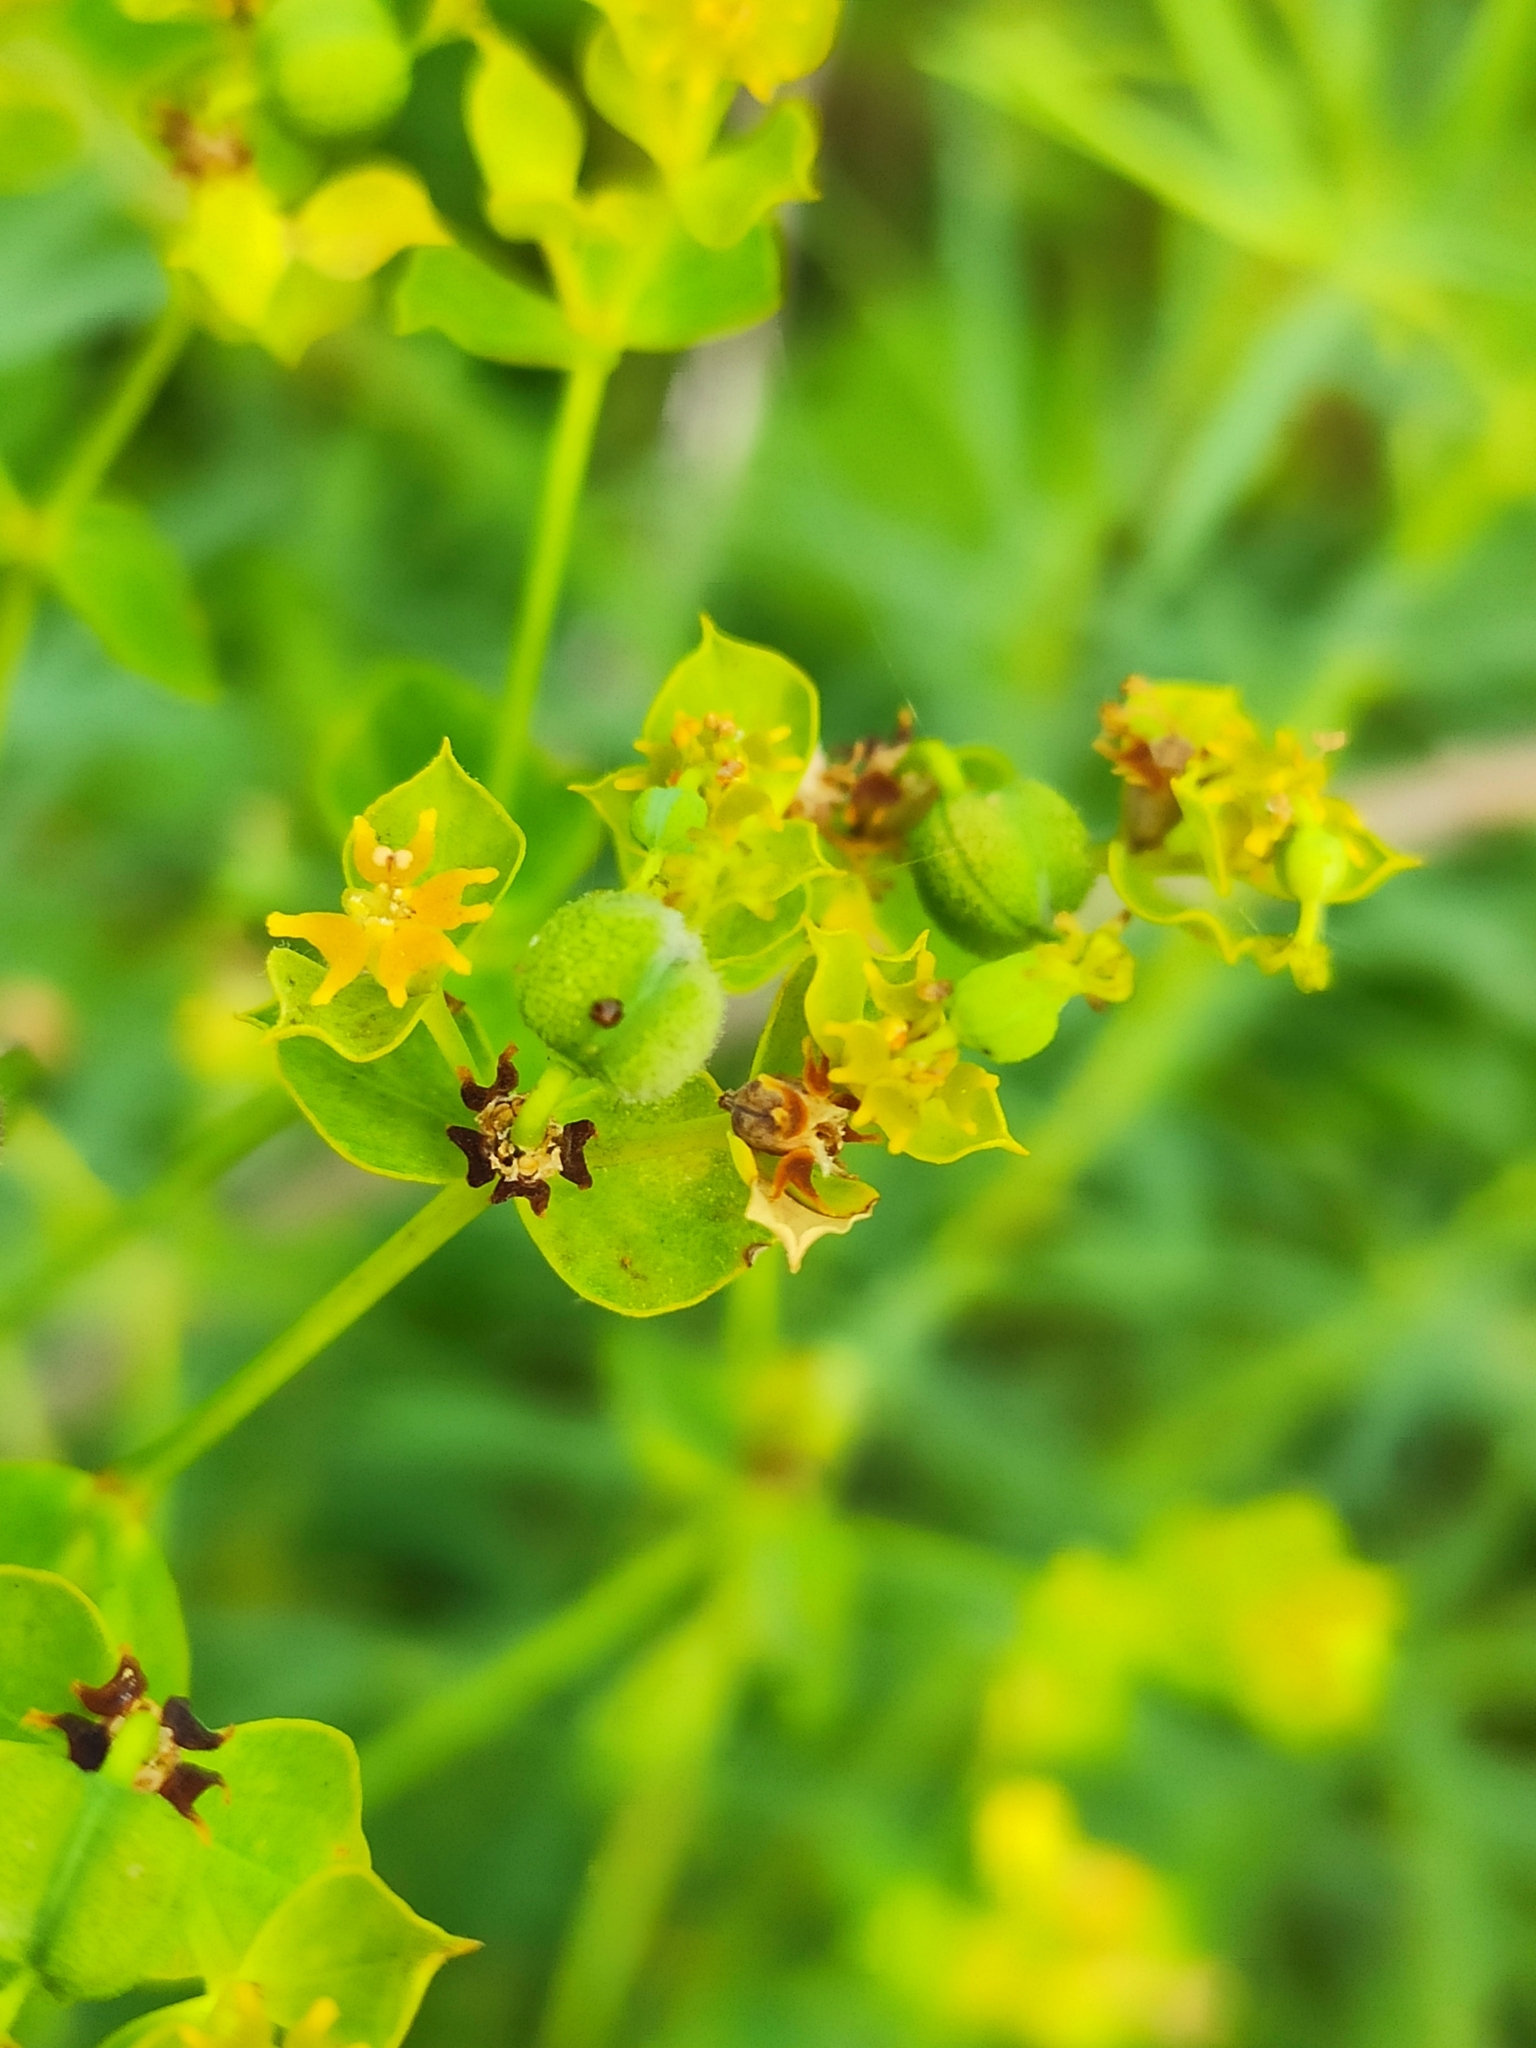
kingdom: Plantae
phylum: Tracheophyta
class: Magnoliopsida
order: Malpighiales
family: Euphorbiaceae
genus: Euphorbia
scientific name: Euphorbia virgata
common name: Leafy spurge
